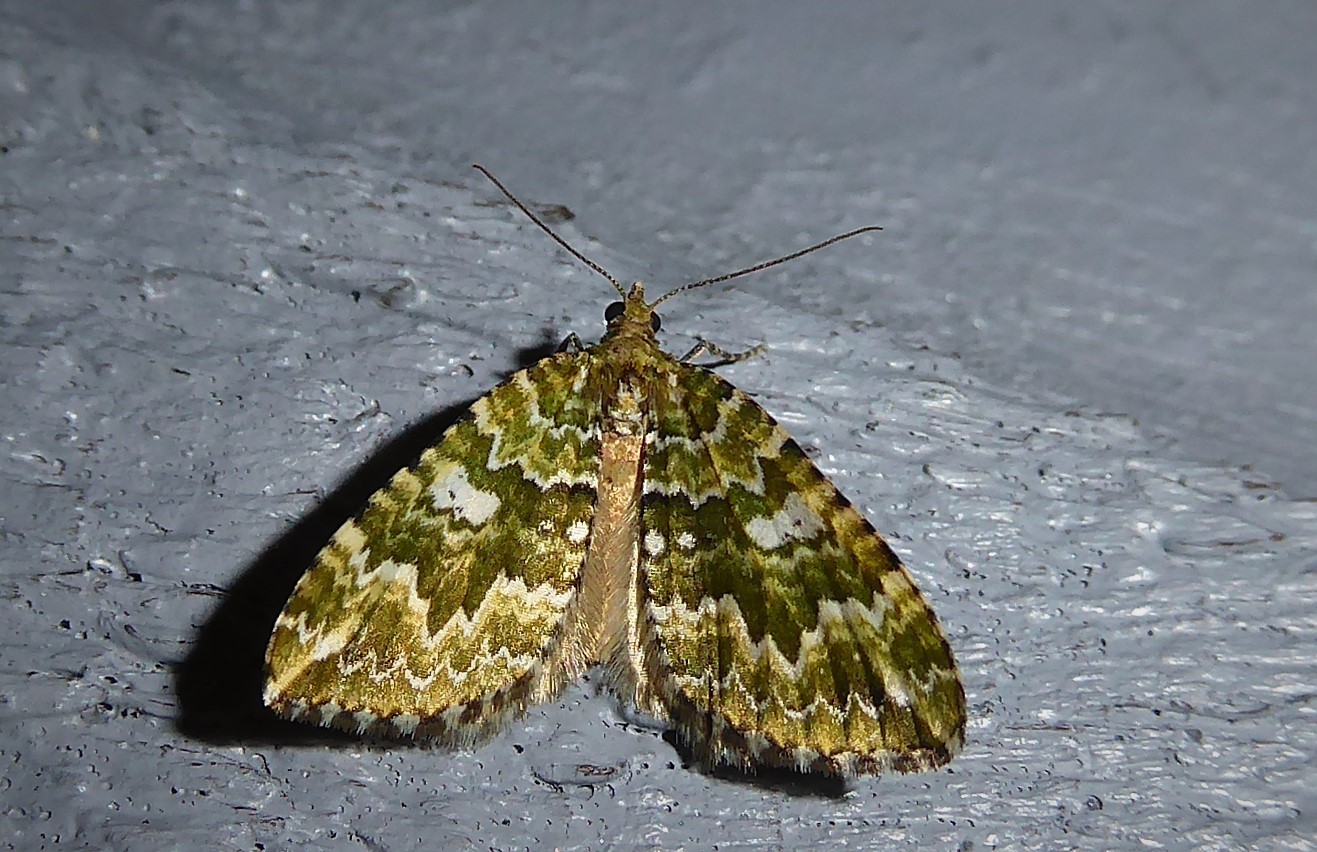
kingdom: Animalia
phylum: Arthropoda
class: Insecta
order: Lepidoptera
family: Geometridae
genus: Asaphodes
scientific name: Asaphodes beata
